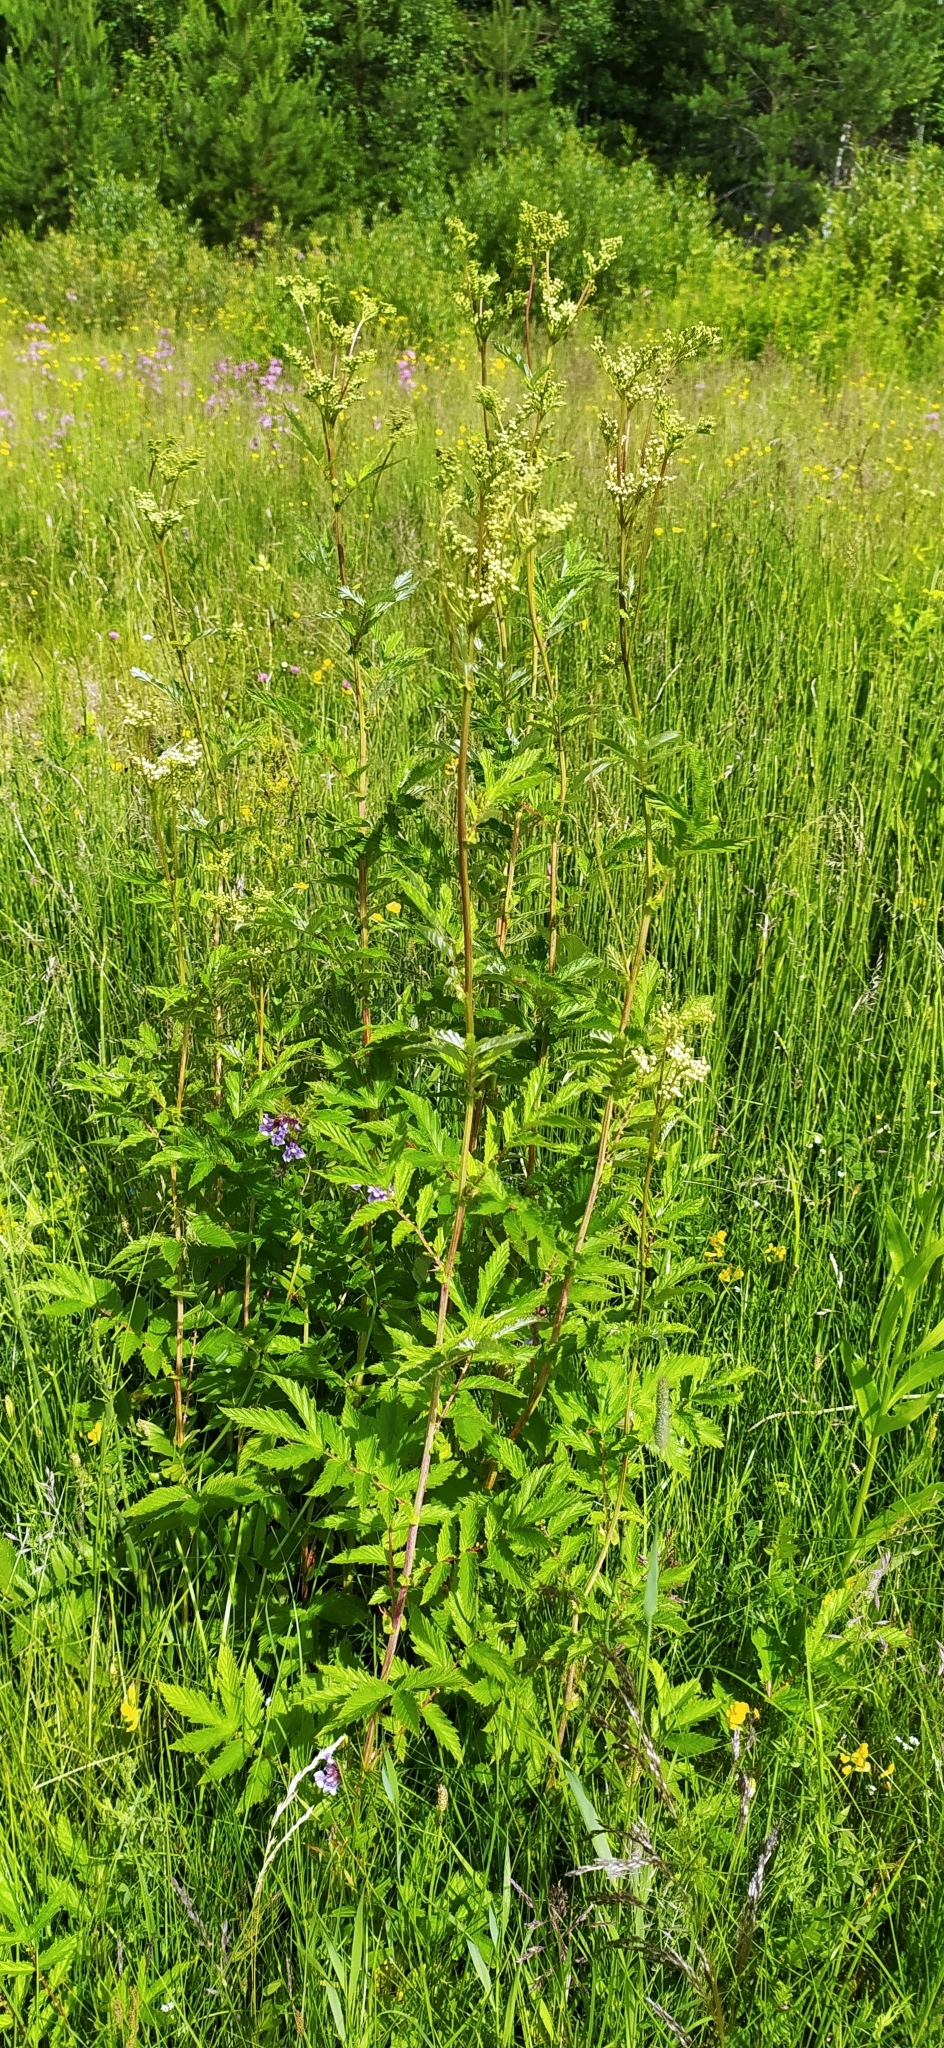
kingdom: Plantae
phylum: Tracheophyta
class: Magnoliopsida
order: Rosales
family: Rosaceae
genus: Filipendula
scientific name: Filipendula ulmaria
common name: Meadowsweet
